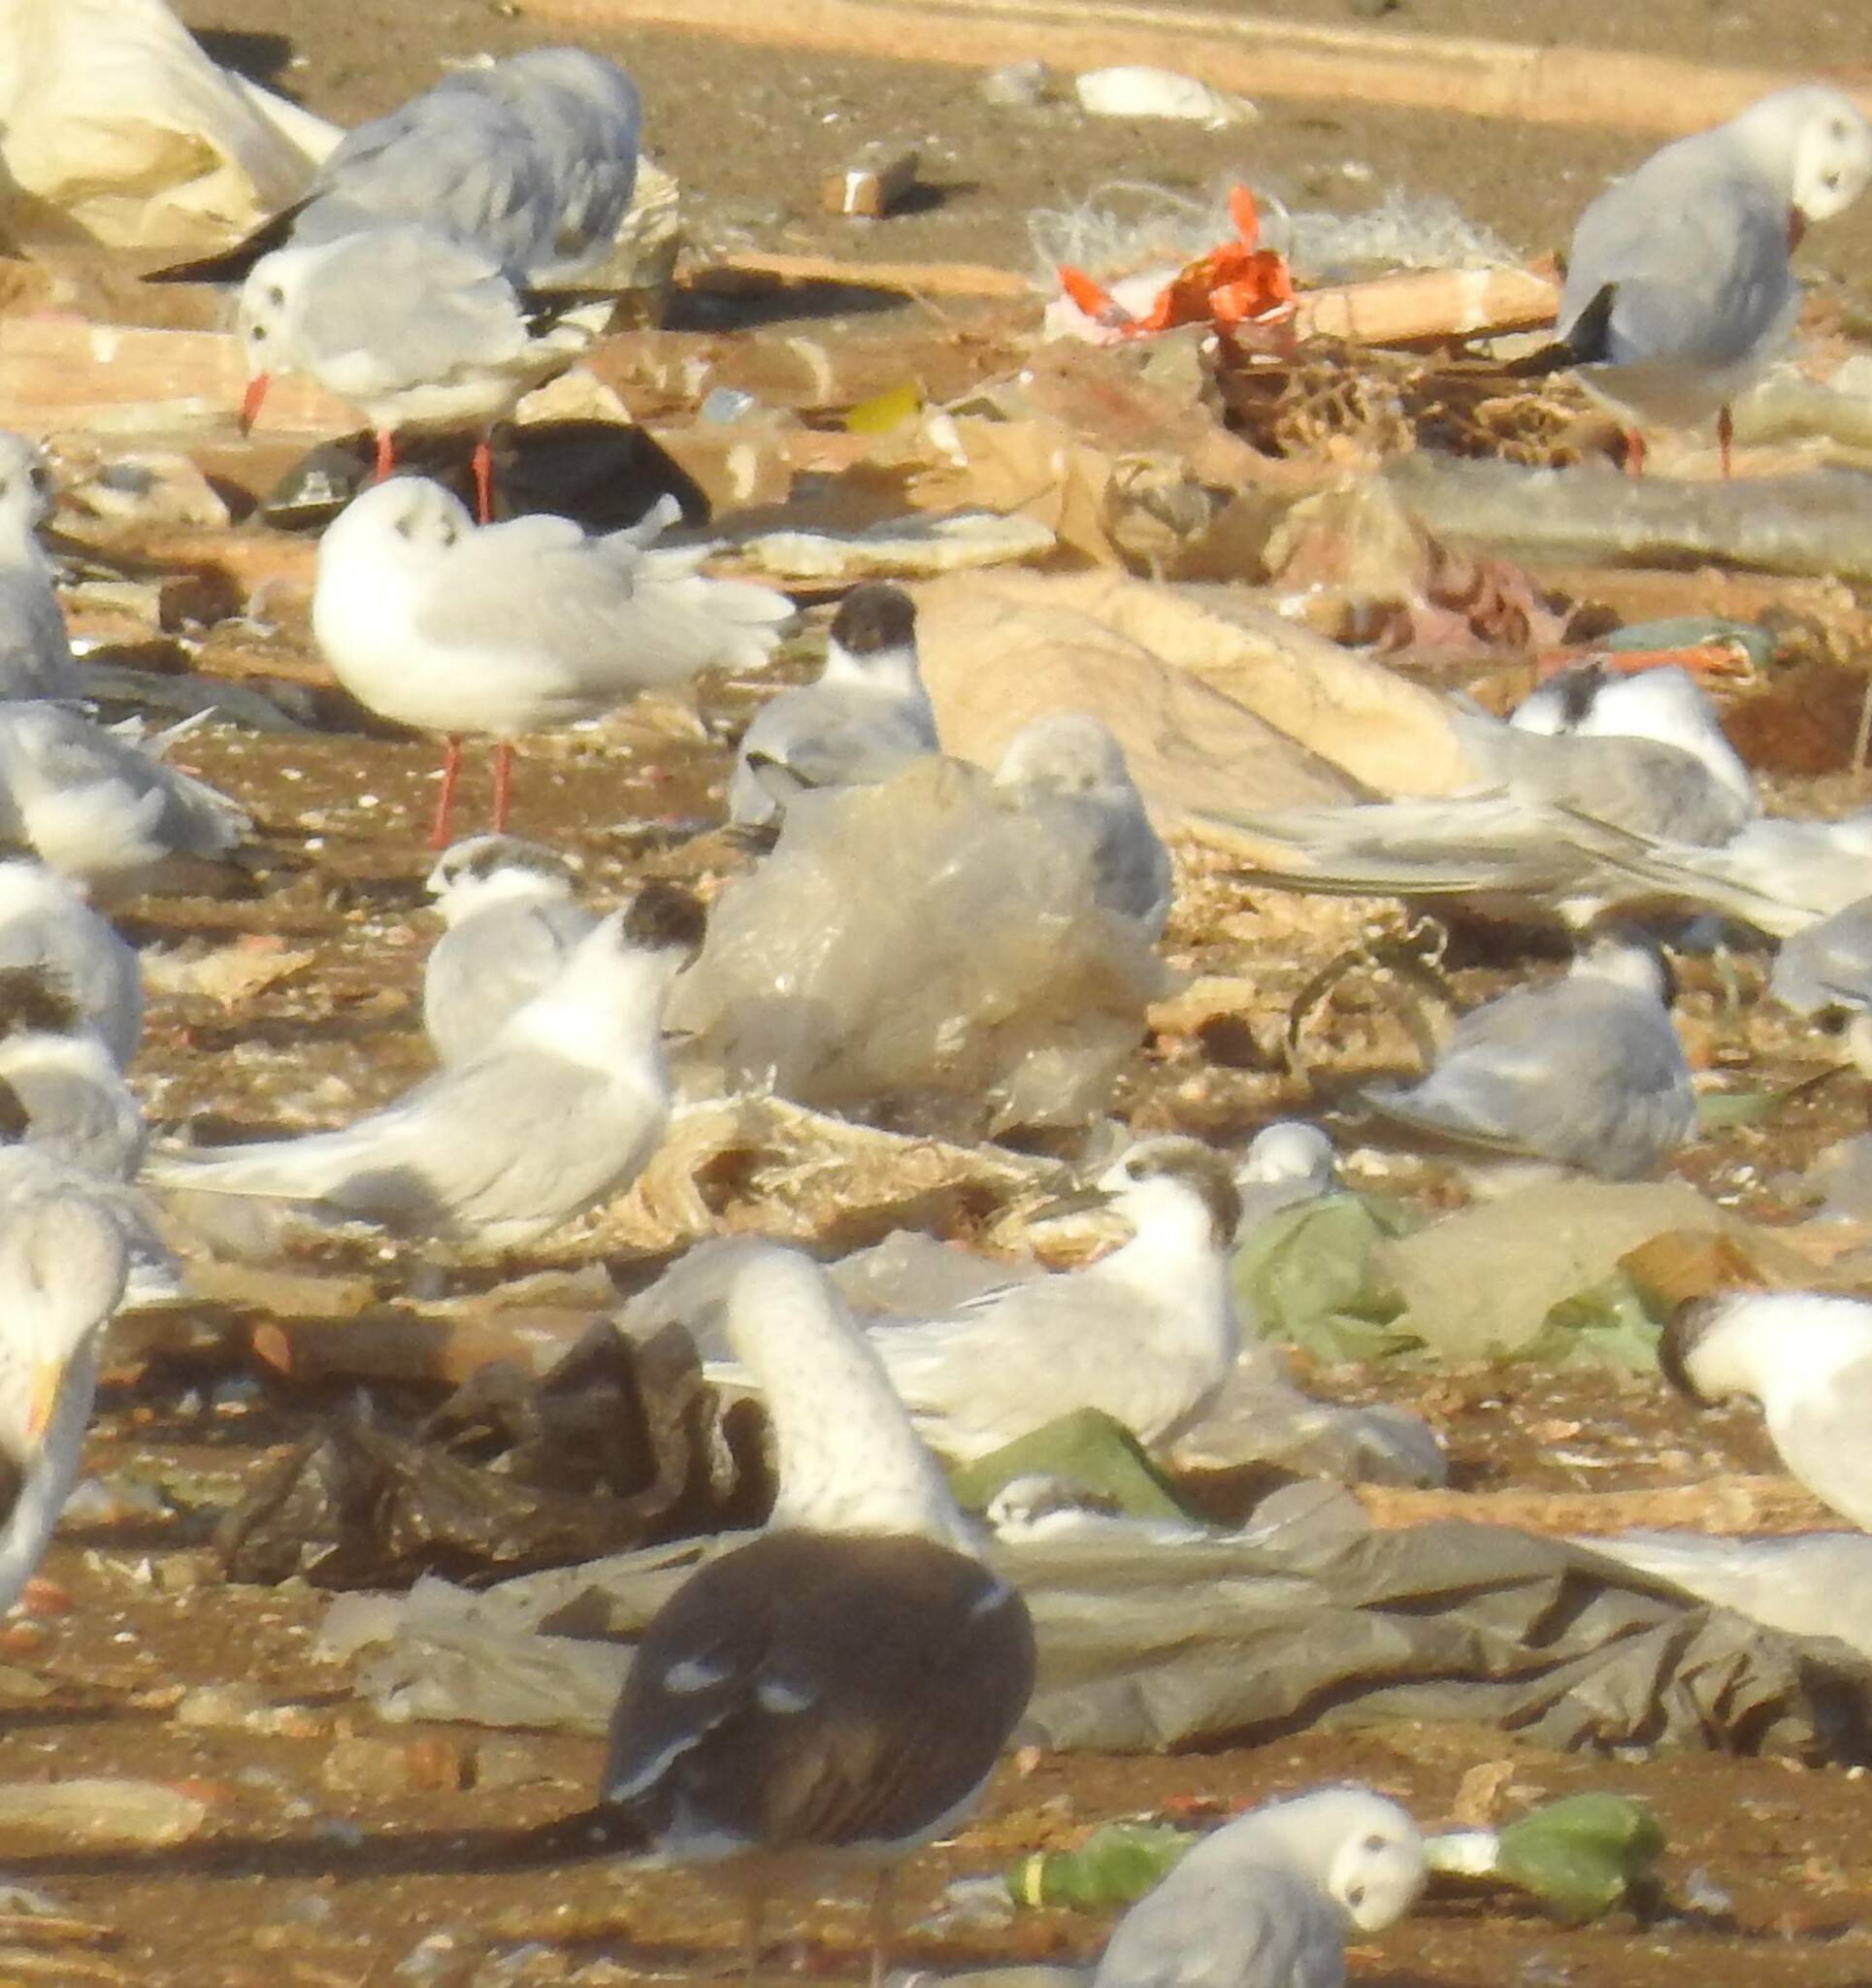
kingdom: Animalia
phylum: Chordata
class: Aves
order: Charadriiformes
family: Laridae
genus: Thalasseus
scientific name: Thalasseus sandvicensis
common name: Sandwich tern
